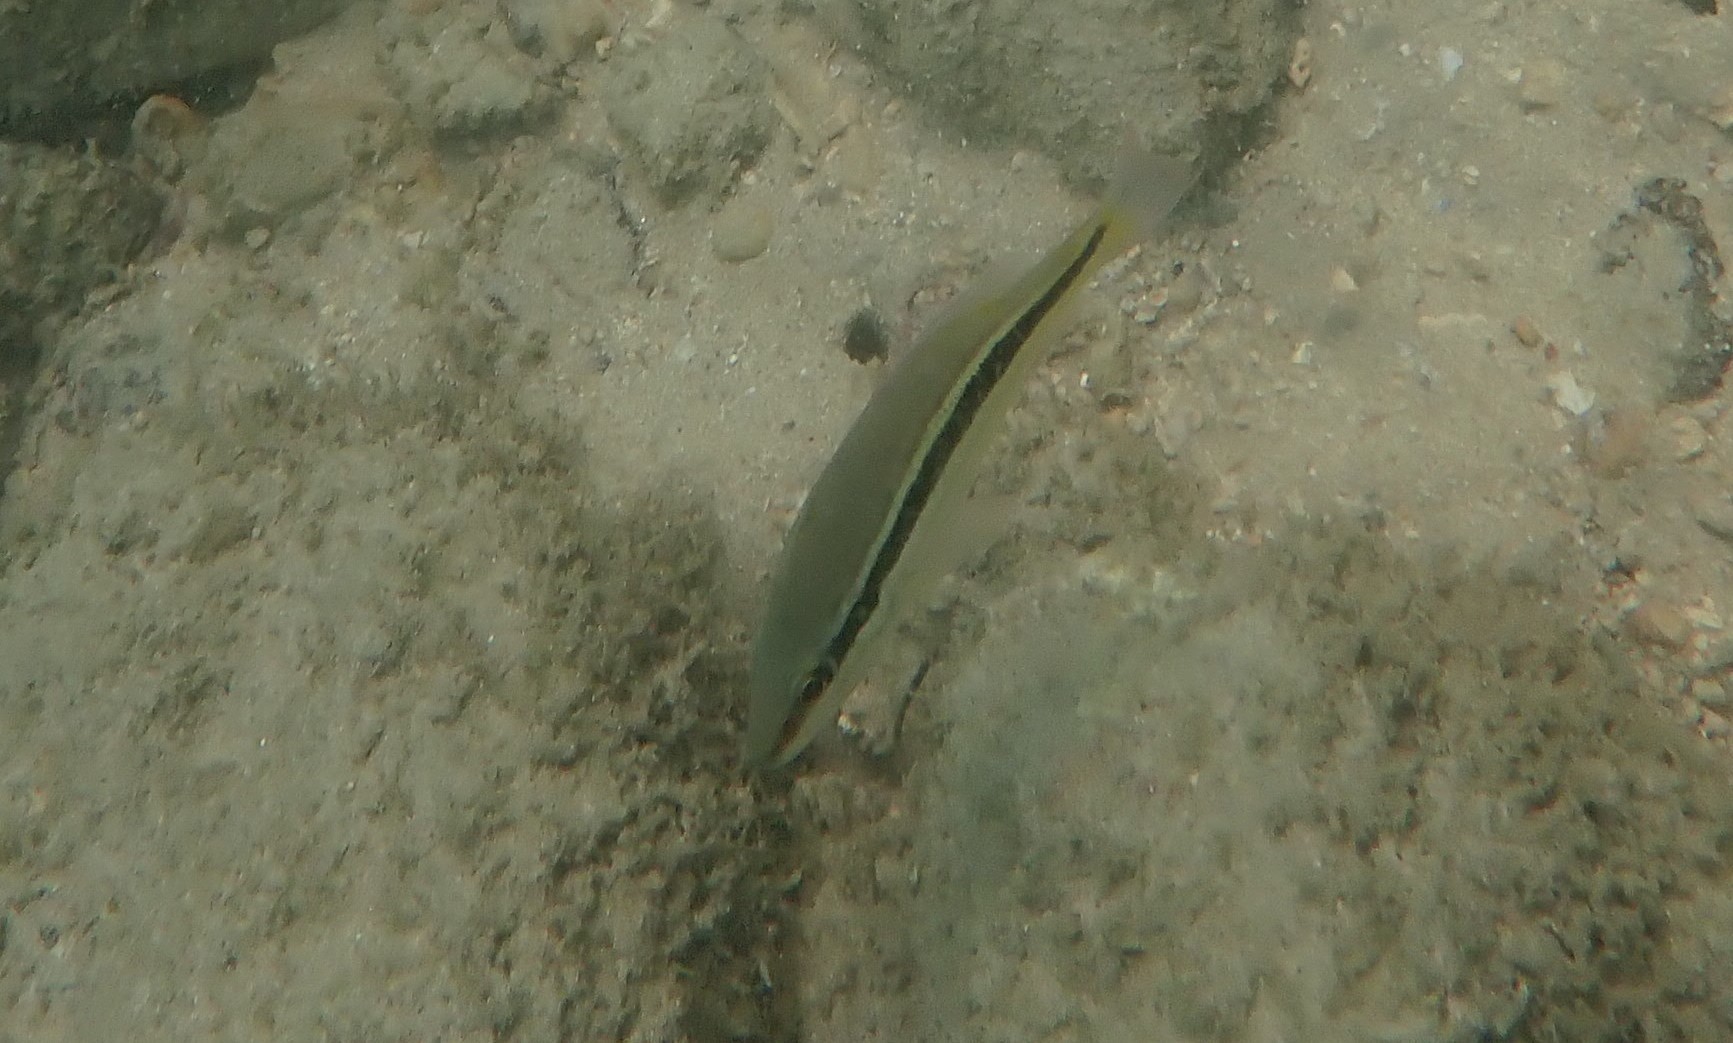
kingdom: Animalia
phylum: Chordata
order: Perciformes
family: Lutjanidae
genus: Lutjanus
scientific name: Lutjanus lemniscatus
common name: Yellowstreaked snapper
